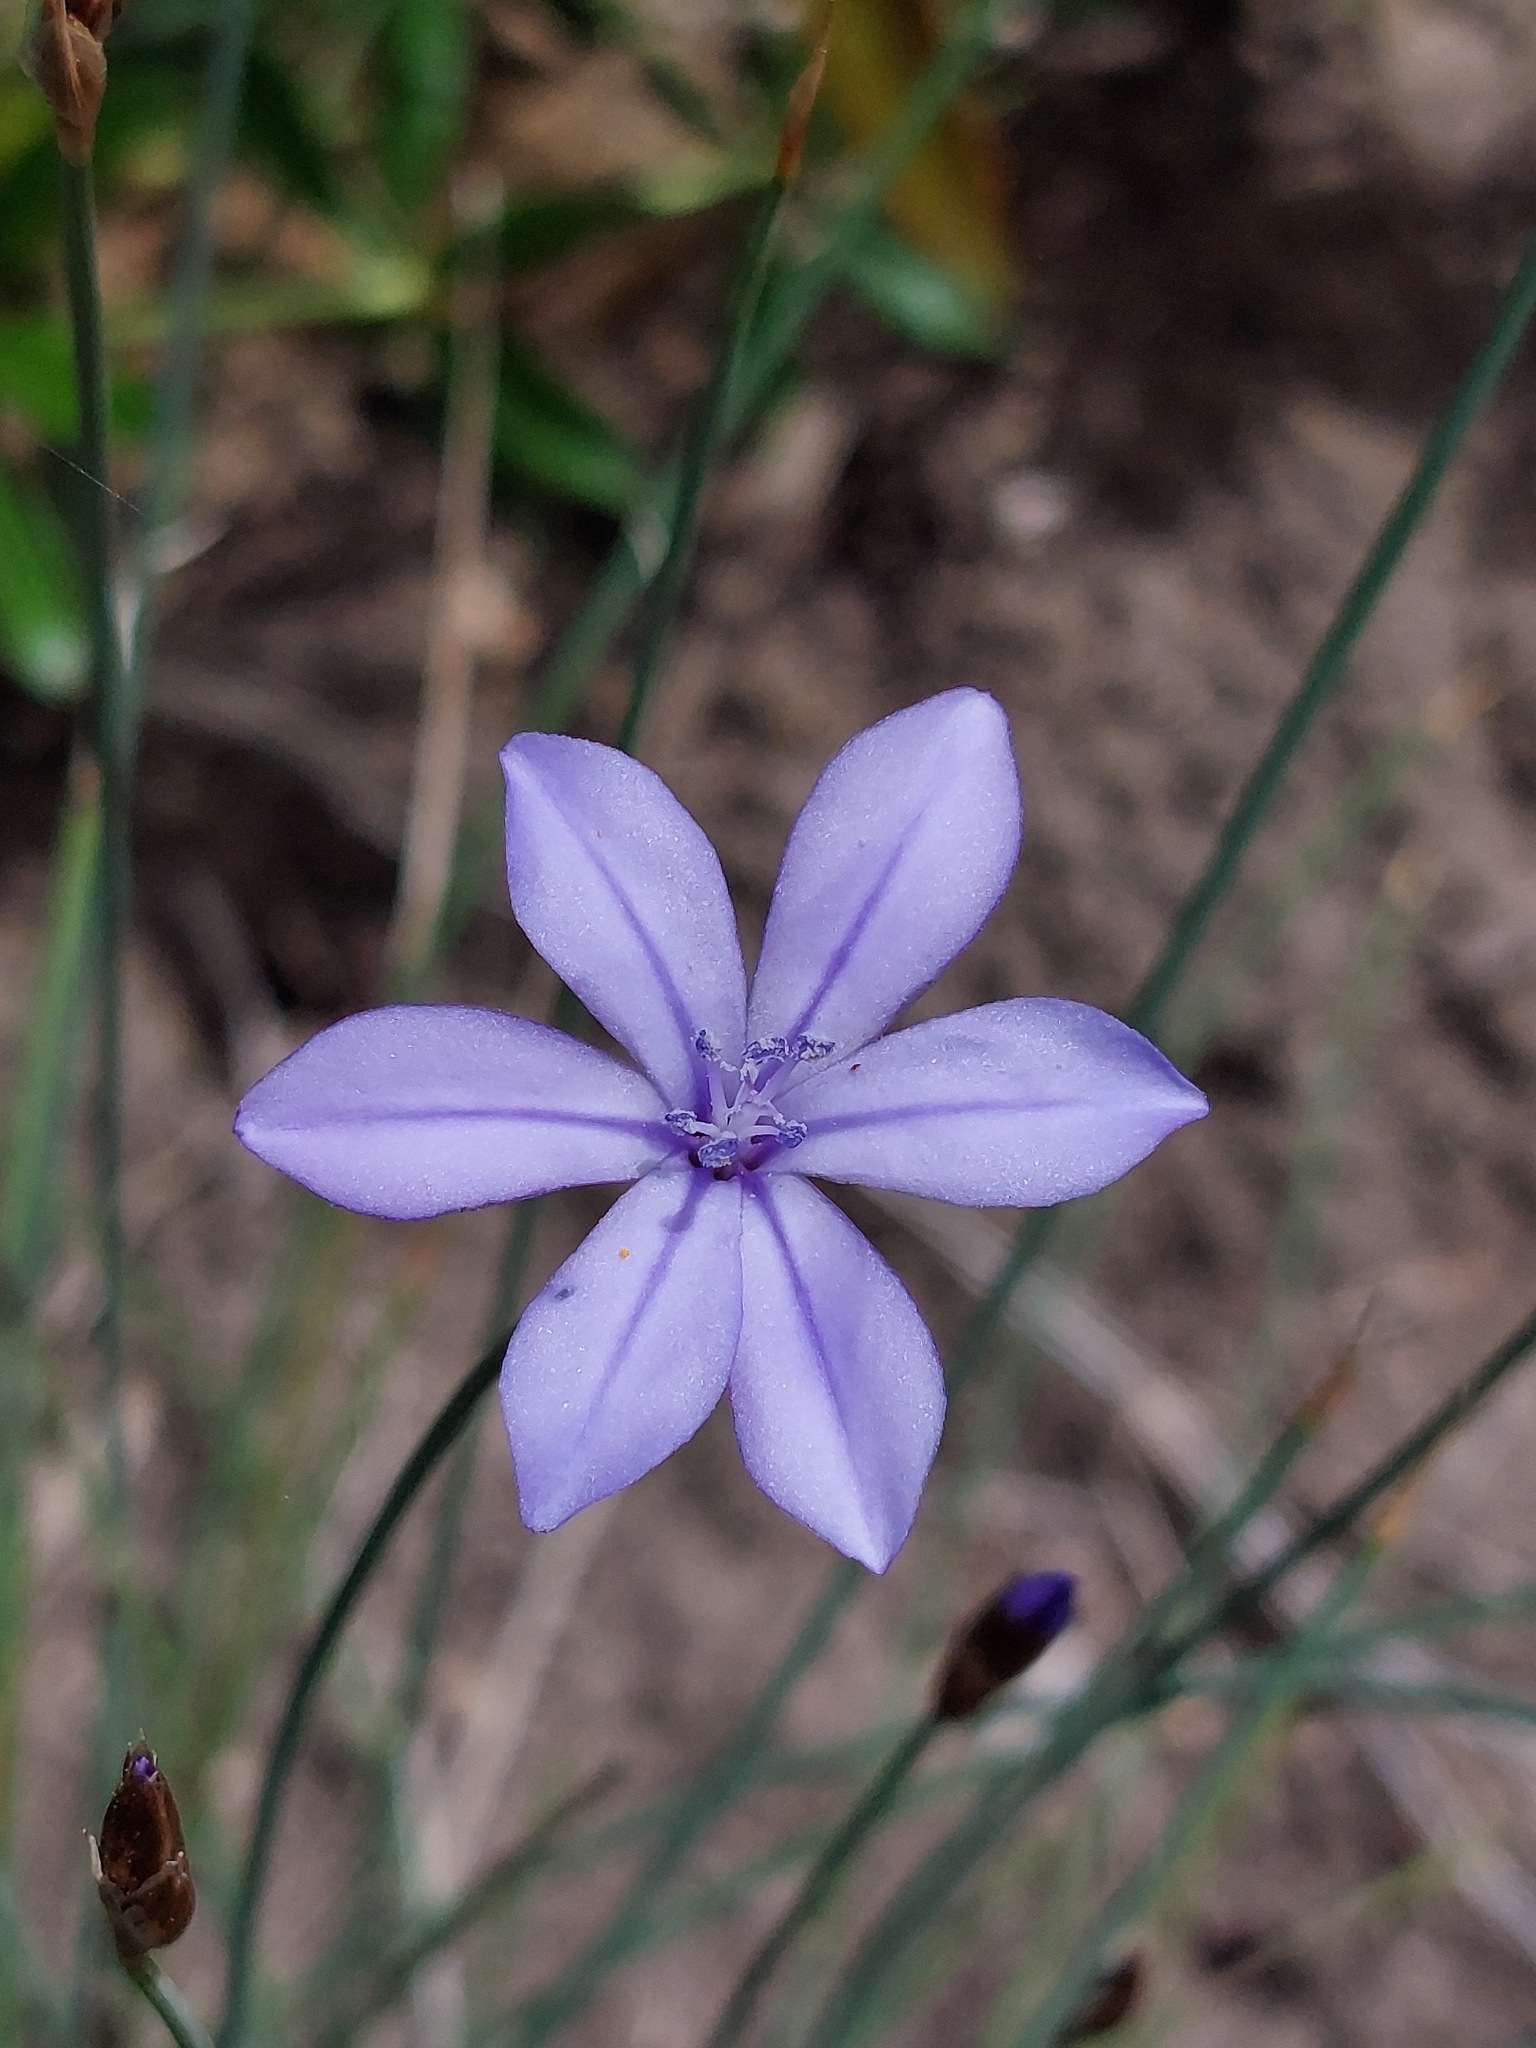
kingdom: Plantae
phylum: Tracheophyta
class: Liliopsida
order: Asparagales
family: Asparagaceae
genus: Aphyllanthes
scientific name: Aphyllanthes monspeliensis
